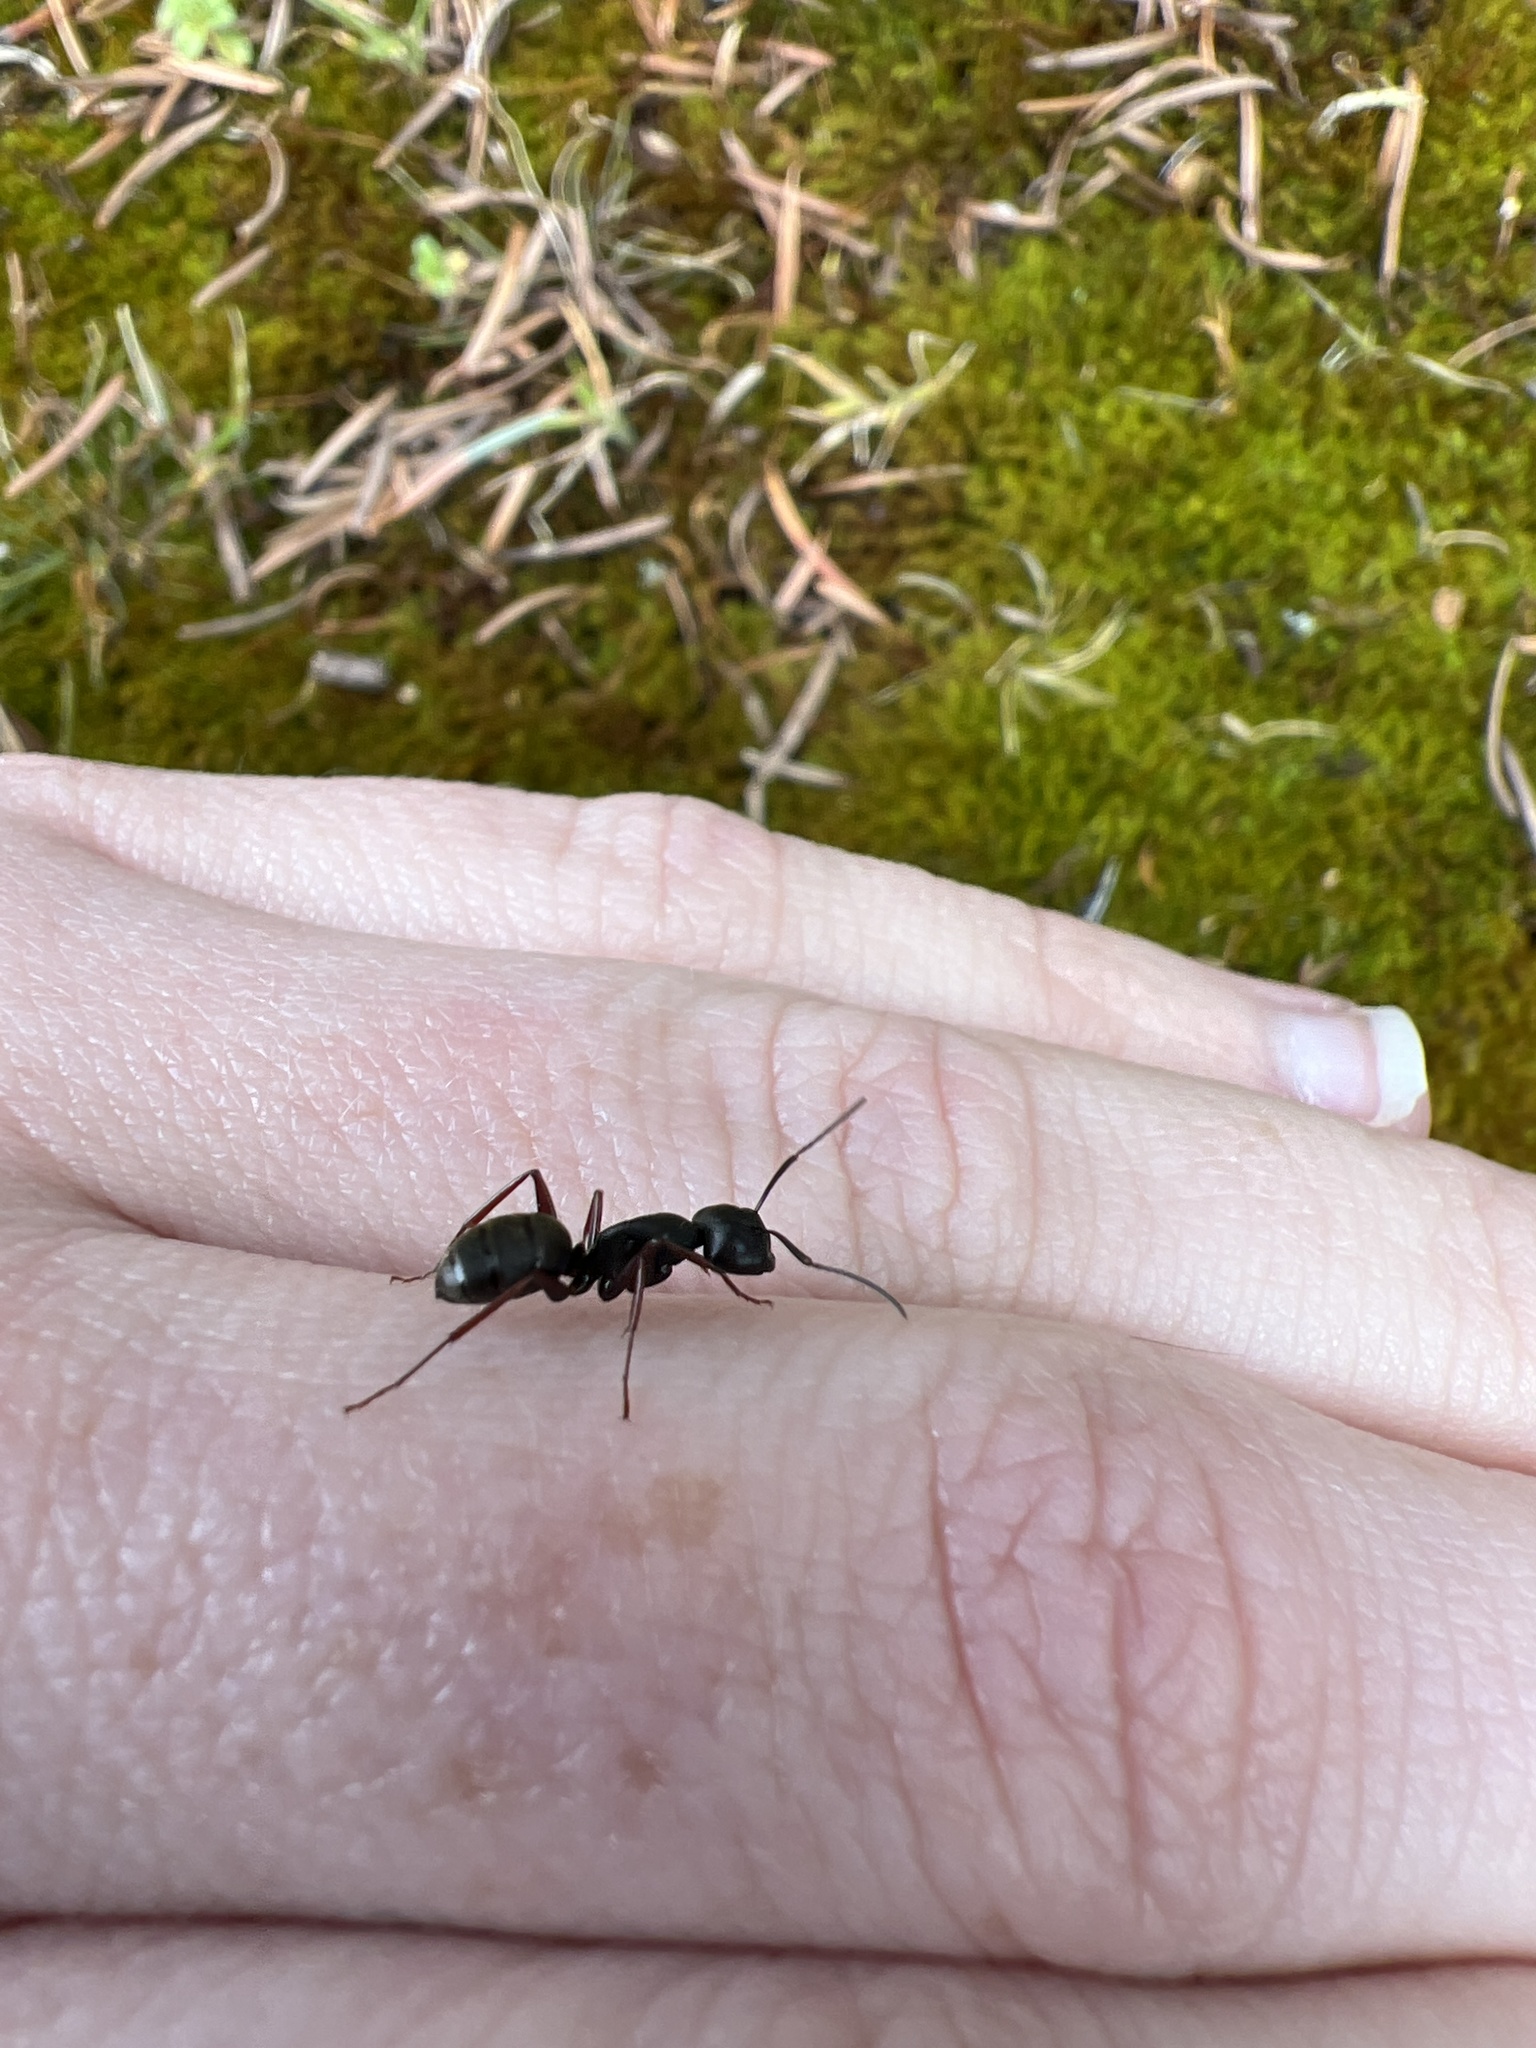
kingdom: Animalia
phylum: Arthropoda
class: Insecta
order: Hymenoptera
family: Formicidae
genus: Camponotus
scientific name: Camponotus modoc
